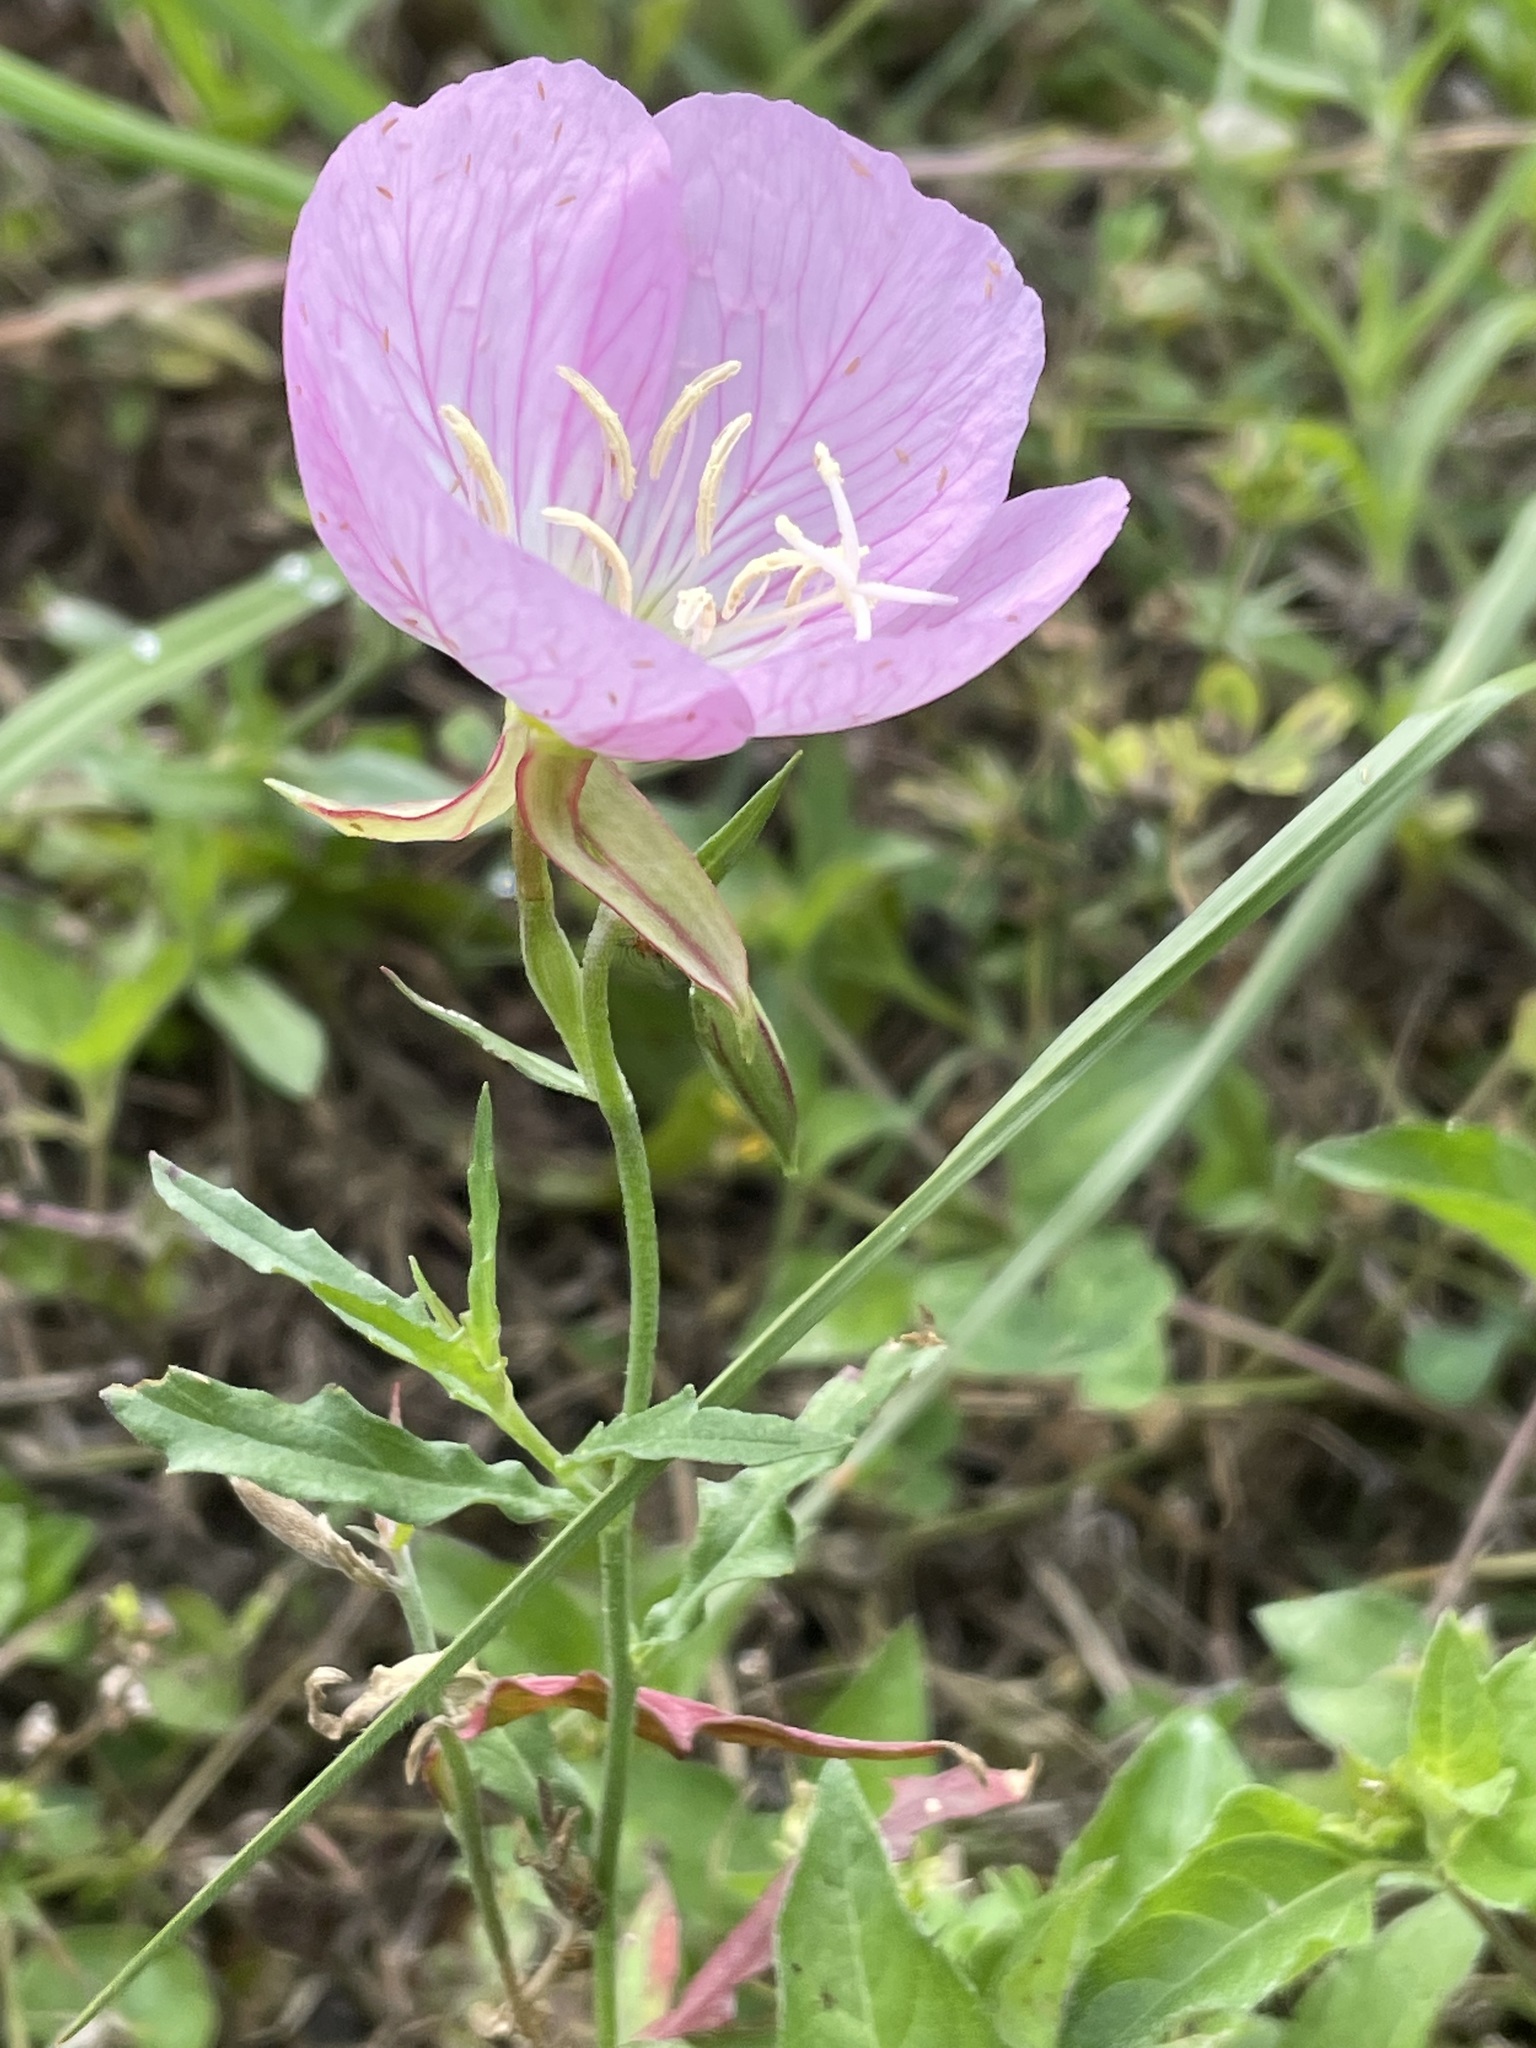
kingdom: Plantae
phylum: Tracheophyta
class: Magnoliopsida
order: Myrtales
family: Onagraceae
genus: Oenothera
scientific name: Oenothera speciosa
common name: White evening-primrose
